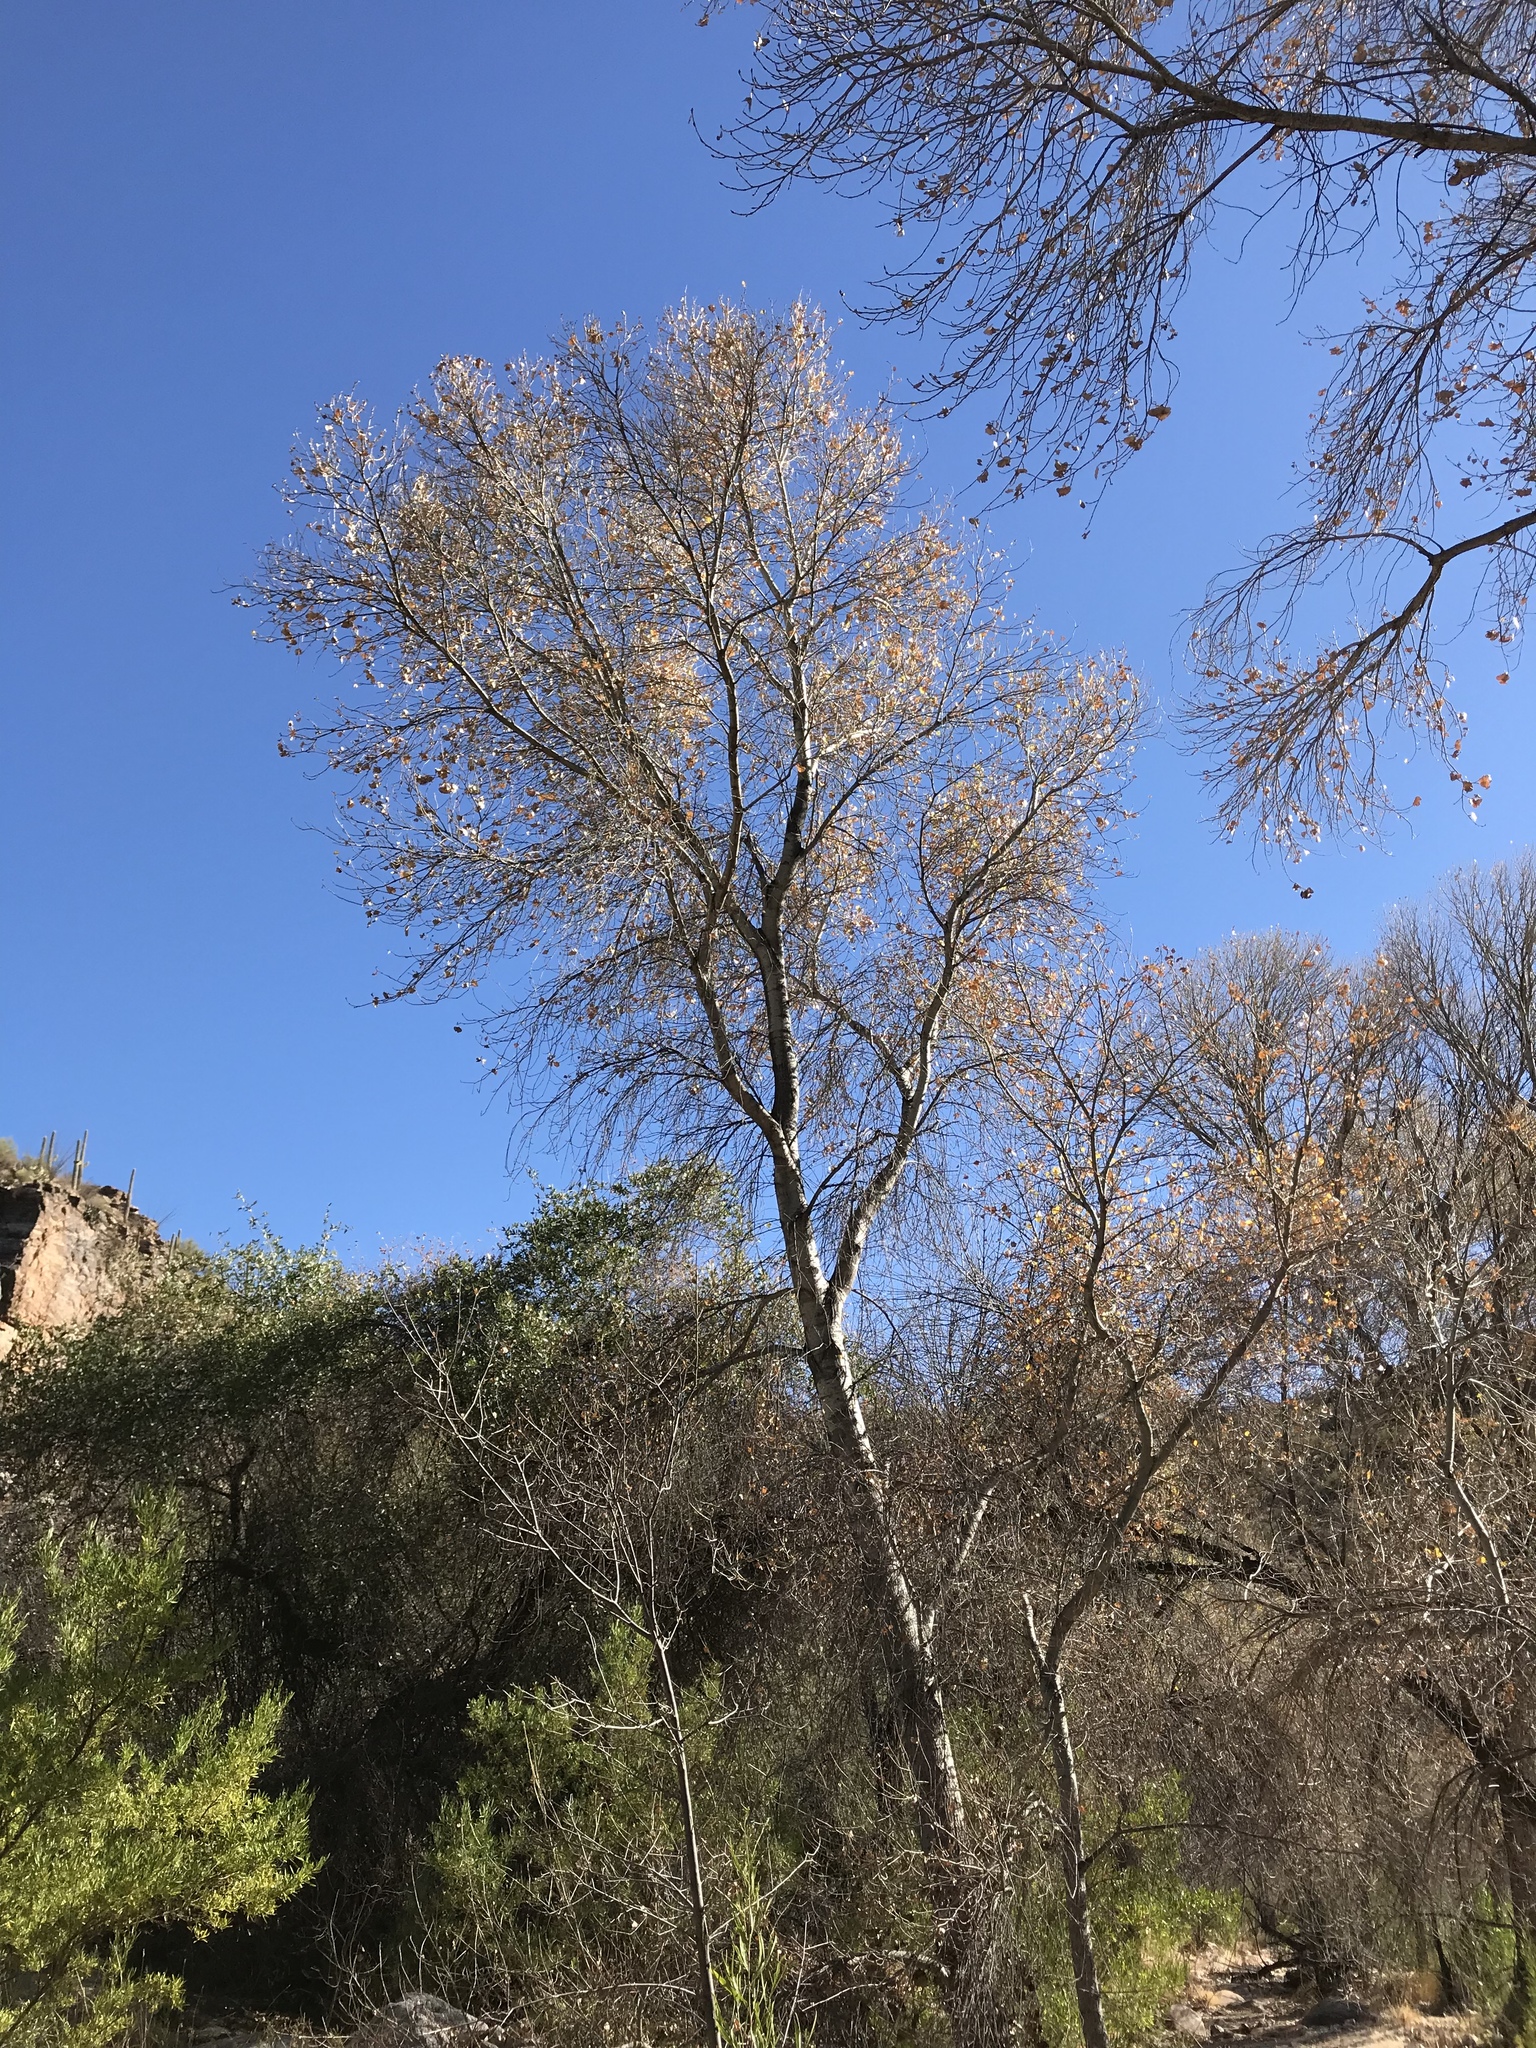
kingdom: Plantae
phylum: Tracheophyta
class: Magnoliopsida
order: Malpighiales
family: Salicaceae
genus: Populus
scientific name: Populus fremontii
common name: Fremont's cottonwood
